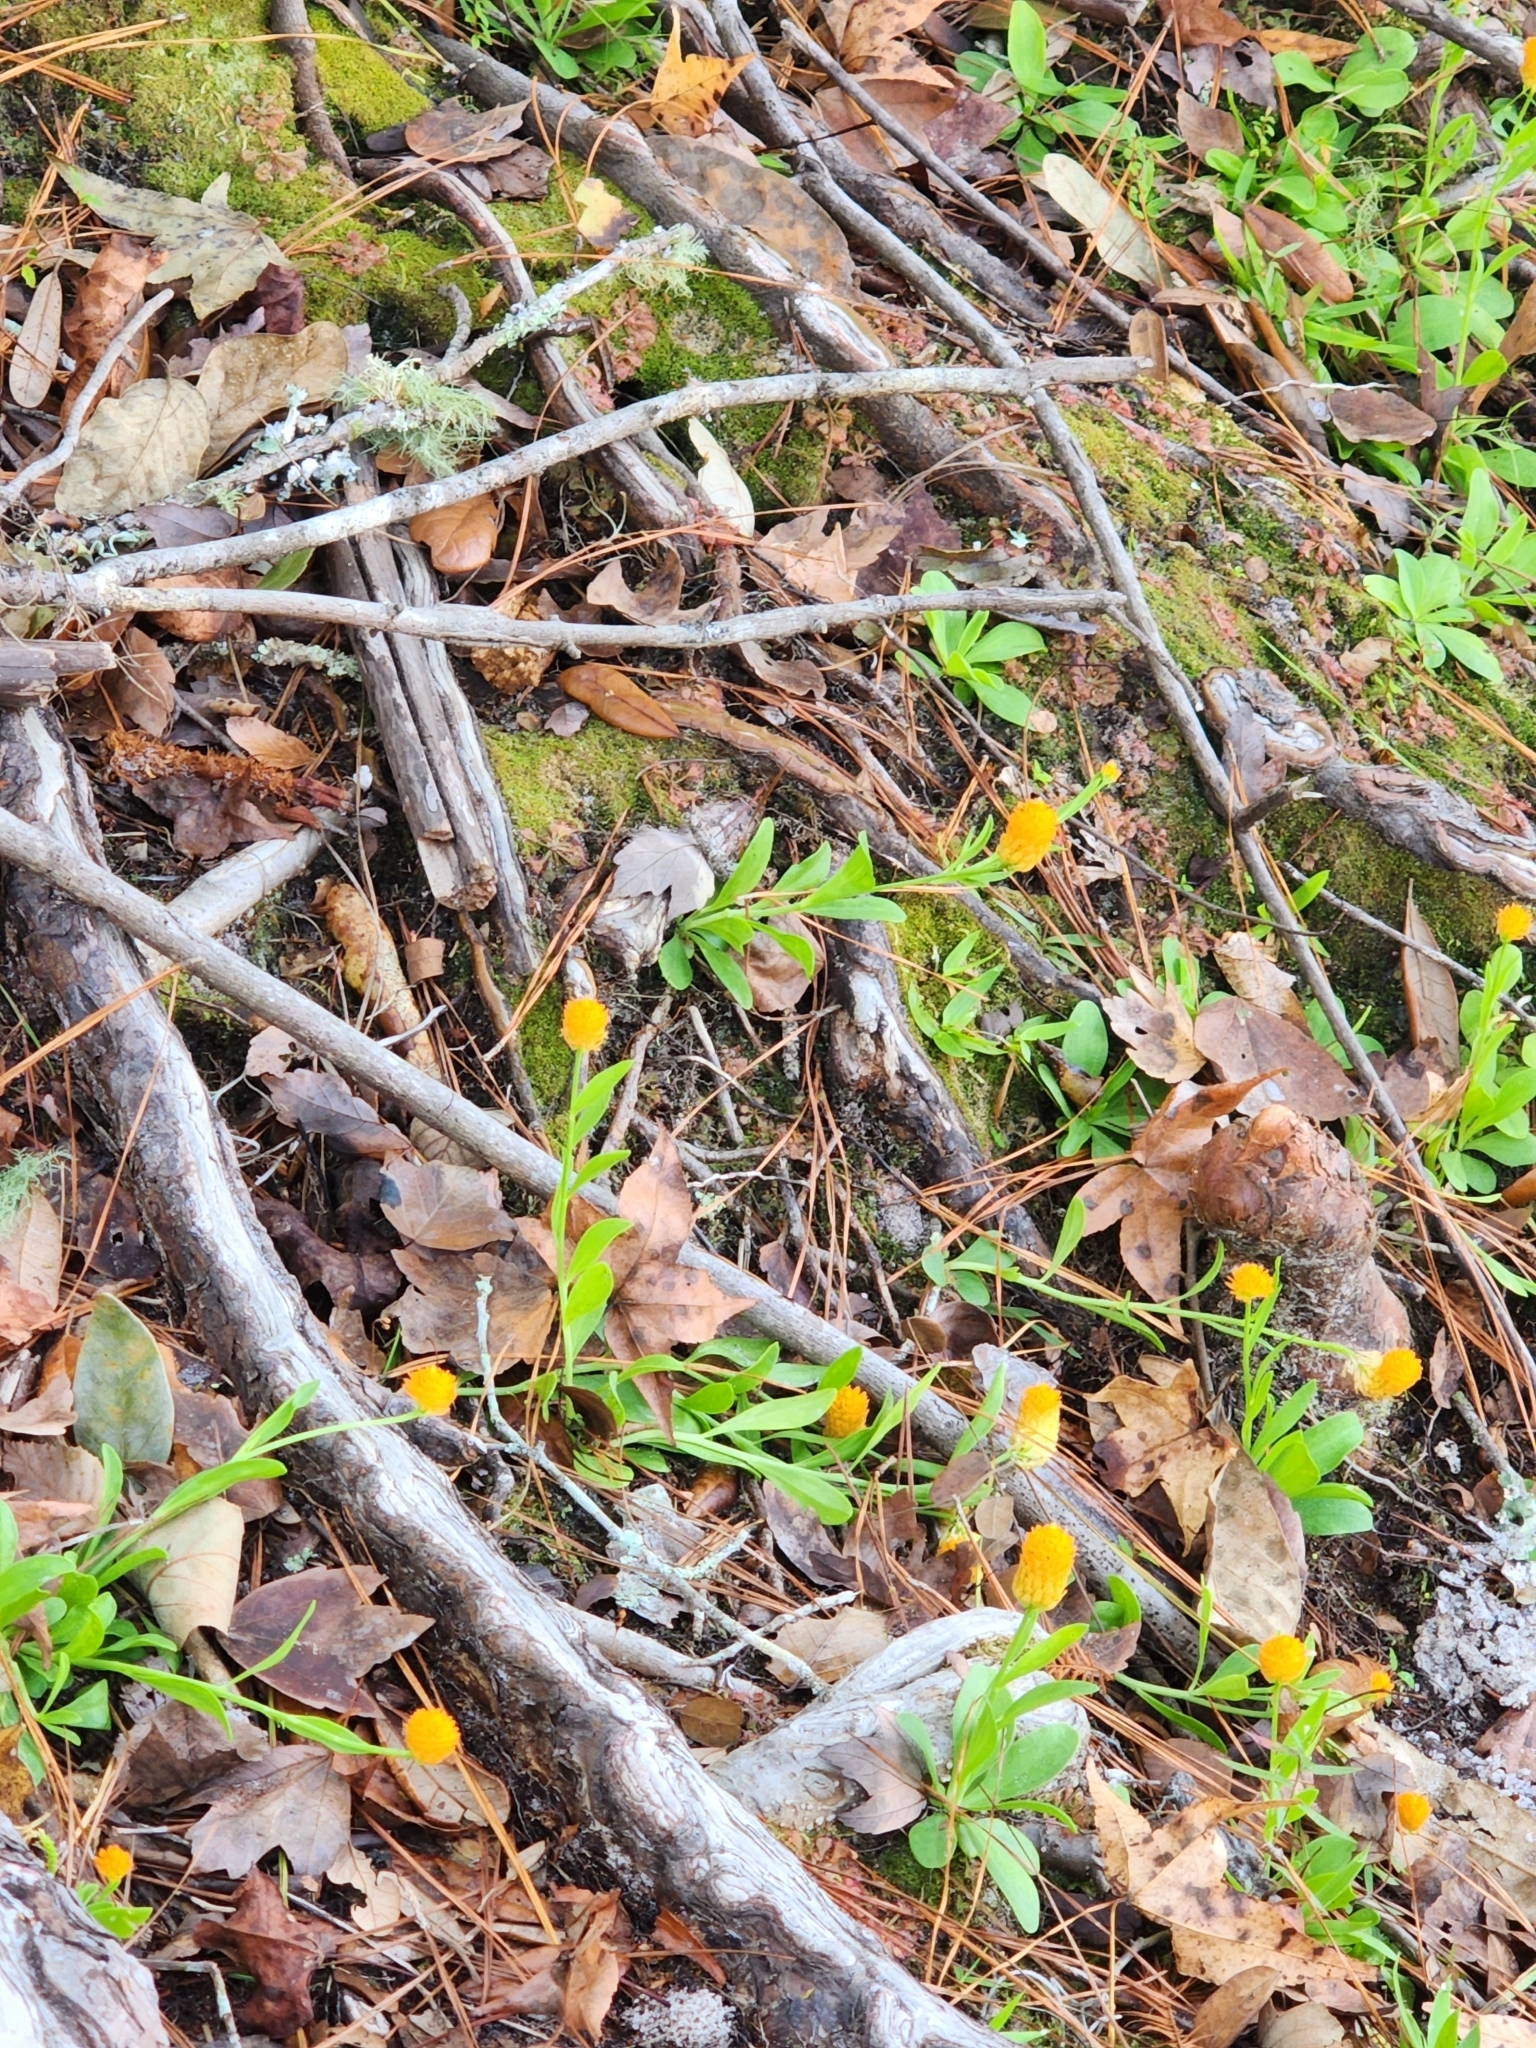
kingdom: Plantae
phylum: Tracheophyta
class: Magnoliopsida
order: Fabales
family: Polygalaceae
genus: Polygala
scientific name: Polygala lutea
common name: Orange milkwort
